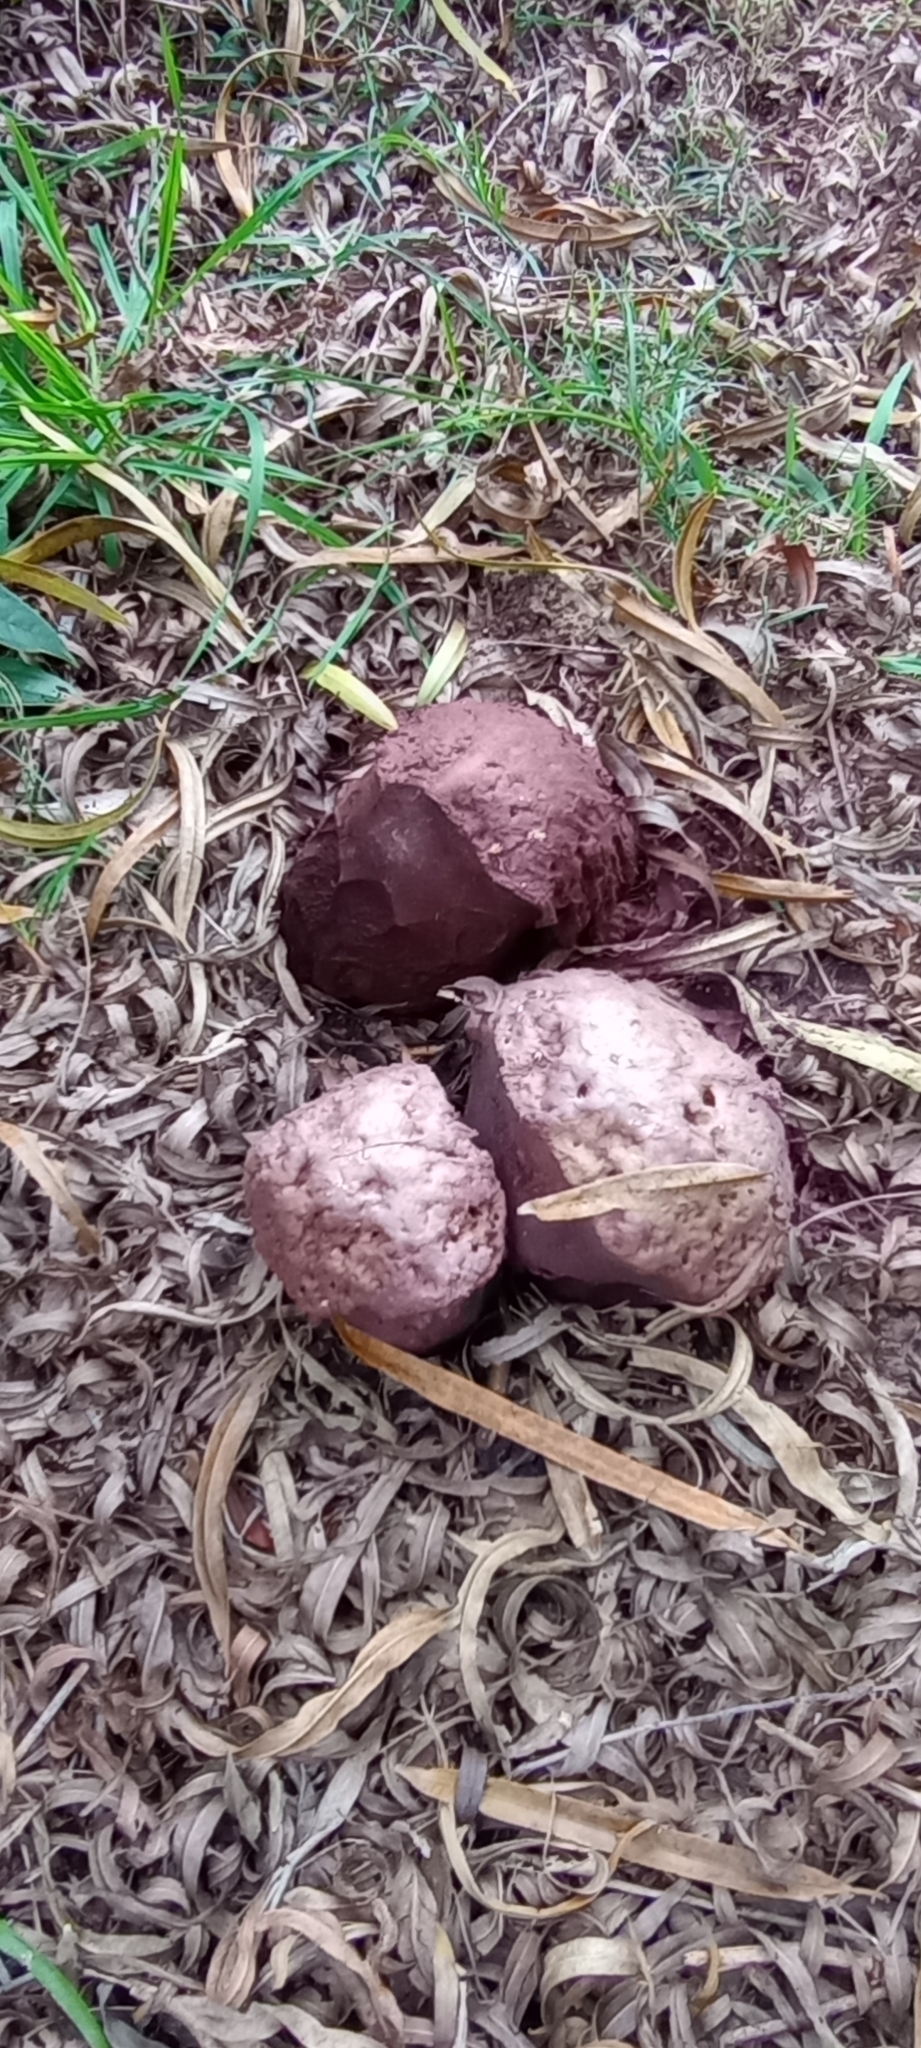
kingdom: Fungi
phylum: Basidiomycota
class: Agaricomycetes
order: Agaricales
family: Lycoperdaceae
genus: Calvatia
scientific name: Calvatia cyathiformis
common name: Purple-spored puffball
